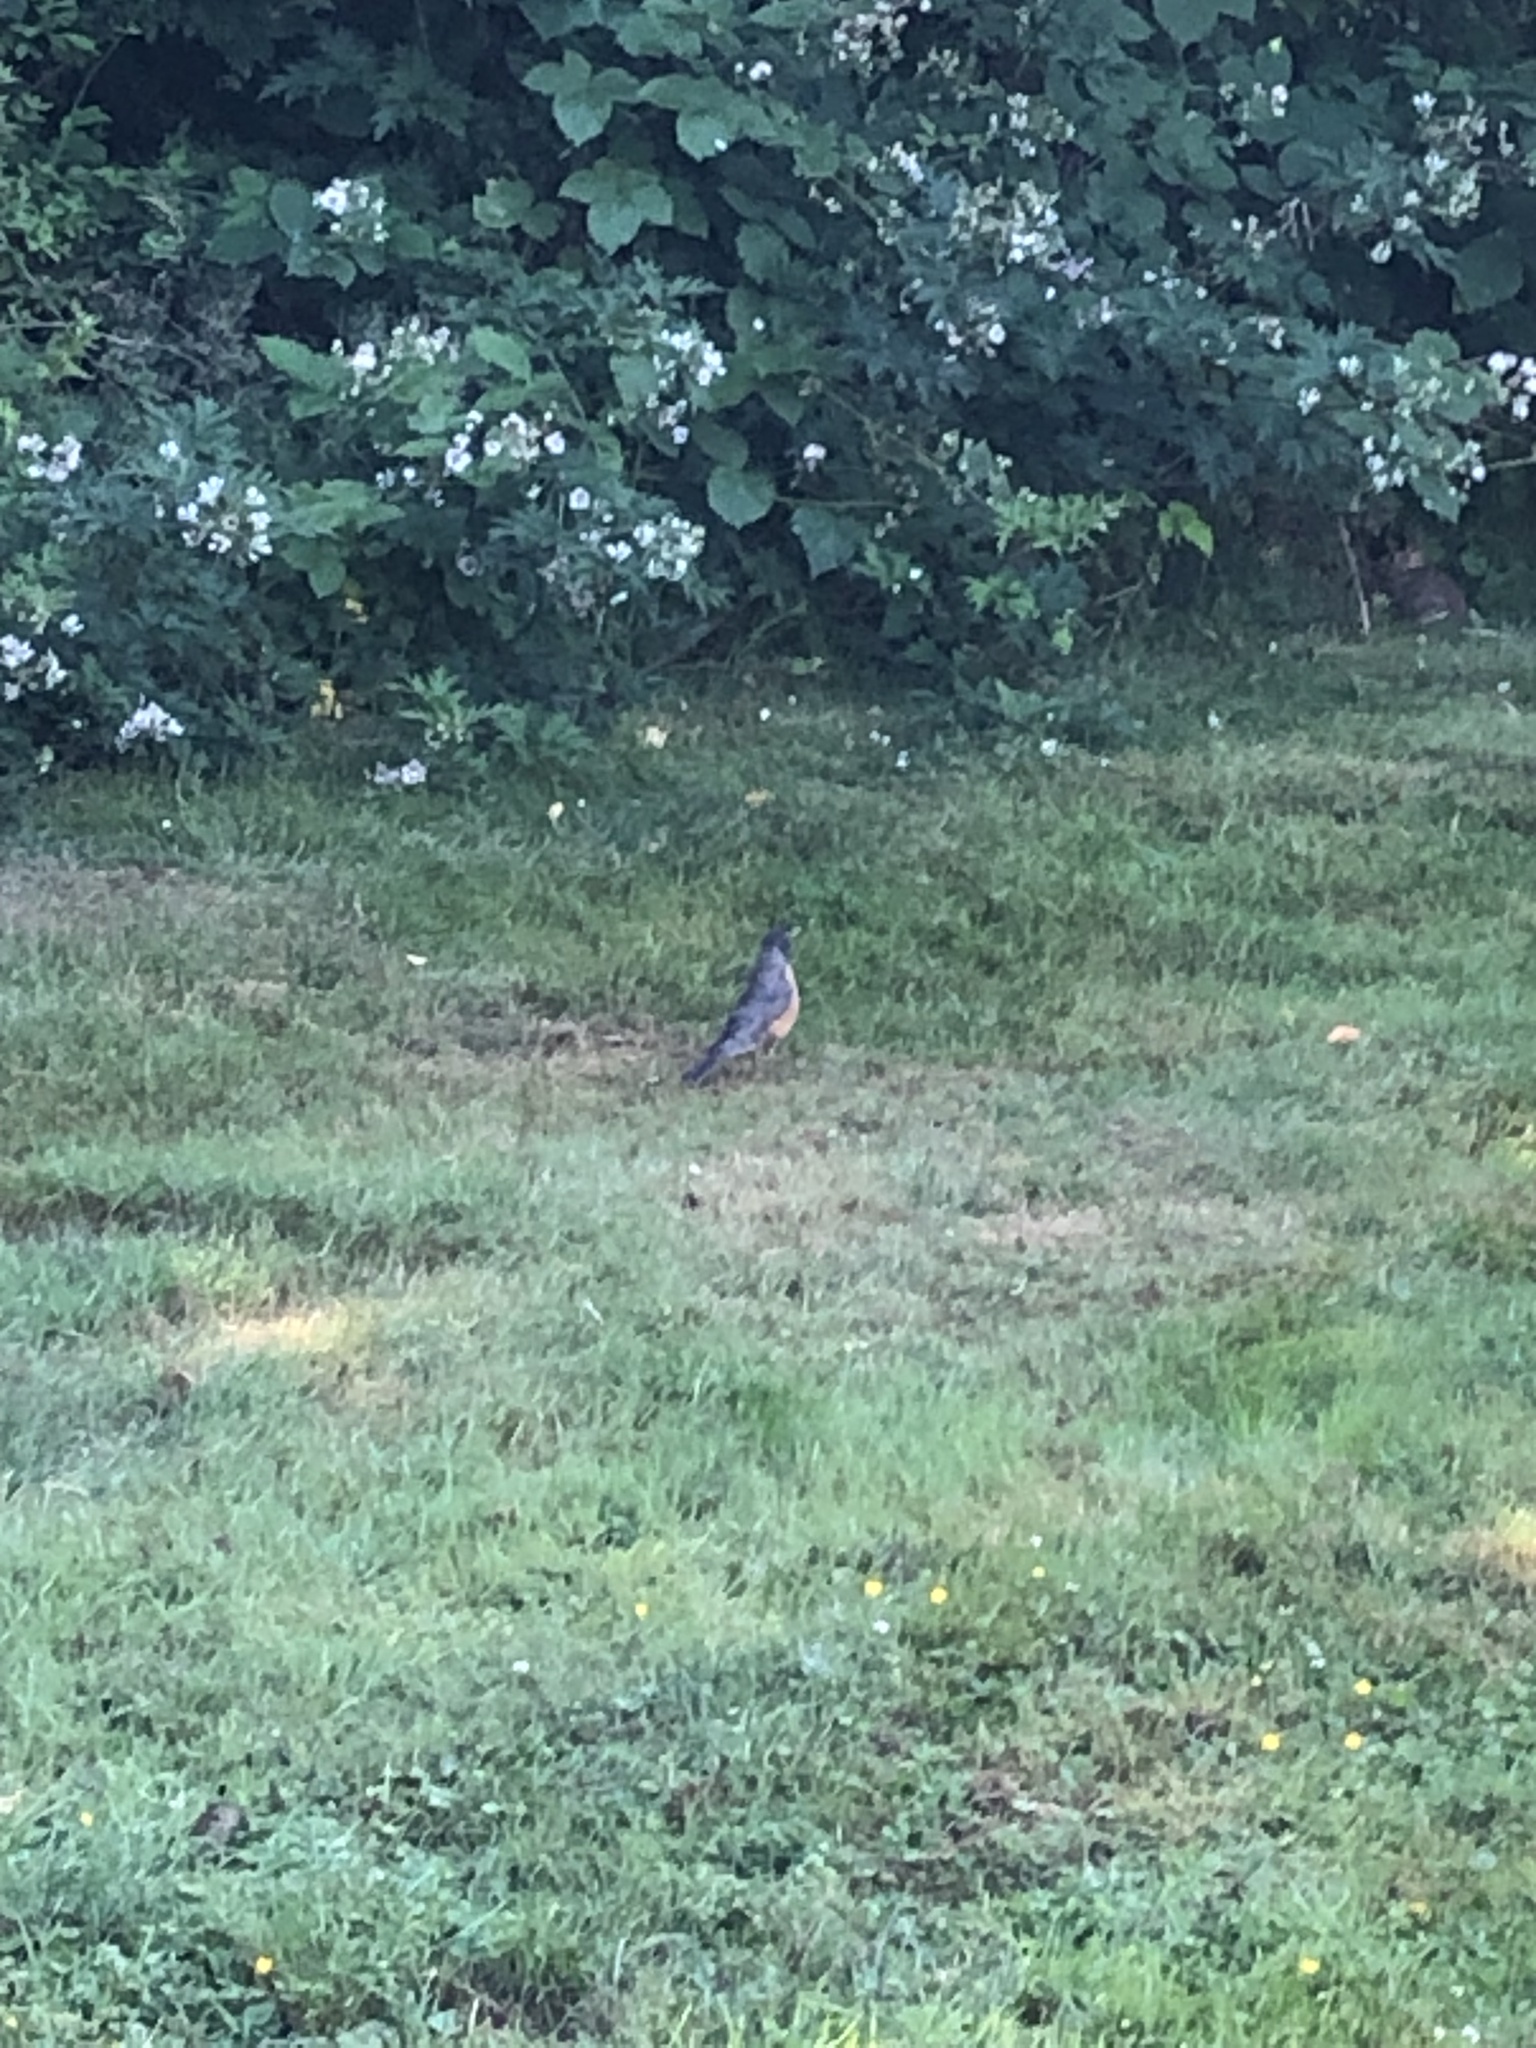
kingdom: Animalia
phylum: Chordata
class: Aves
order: Passeriformes
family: Turdidae
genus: Turdus
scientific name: Turdus migratorius
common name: American robin
